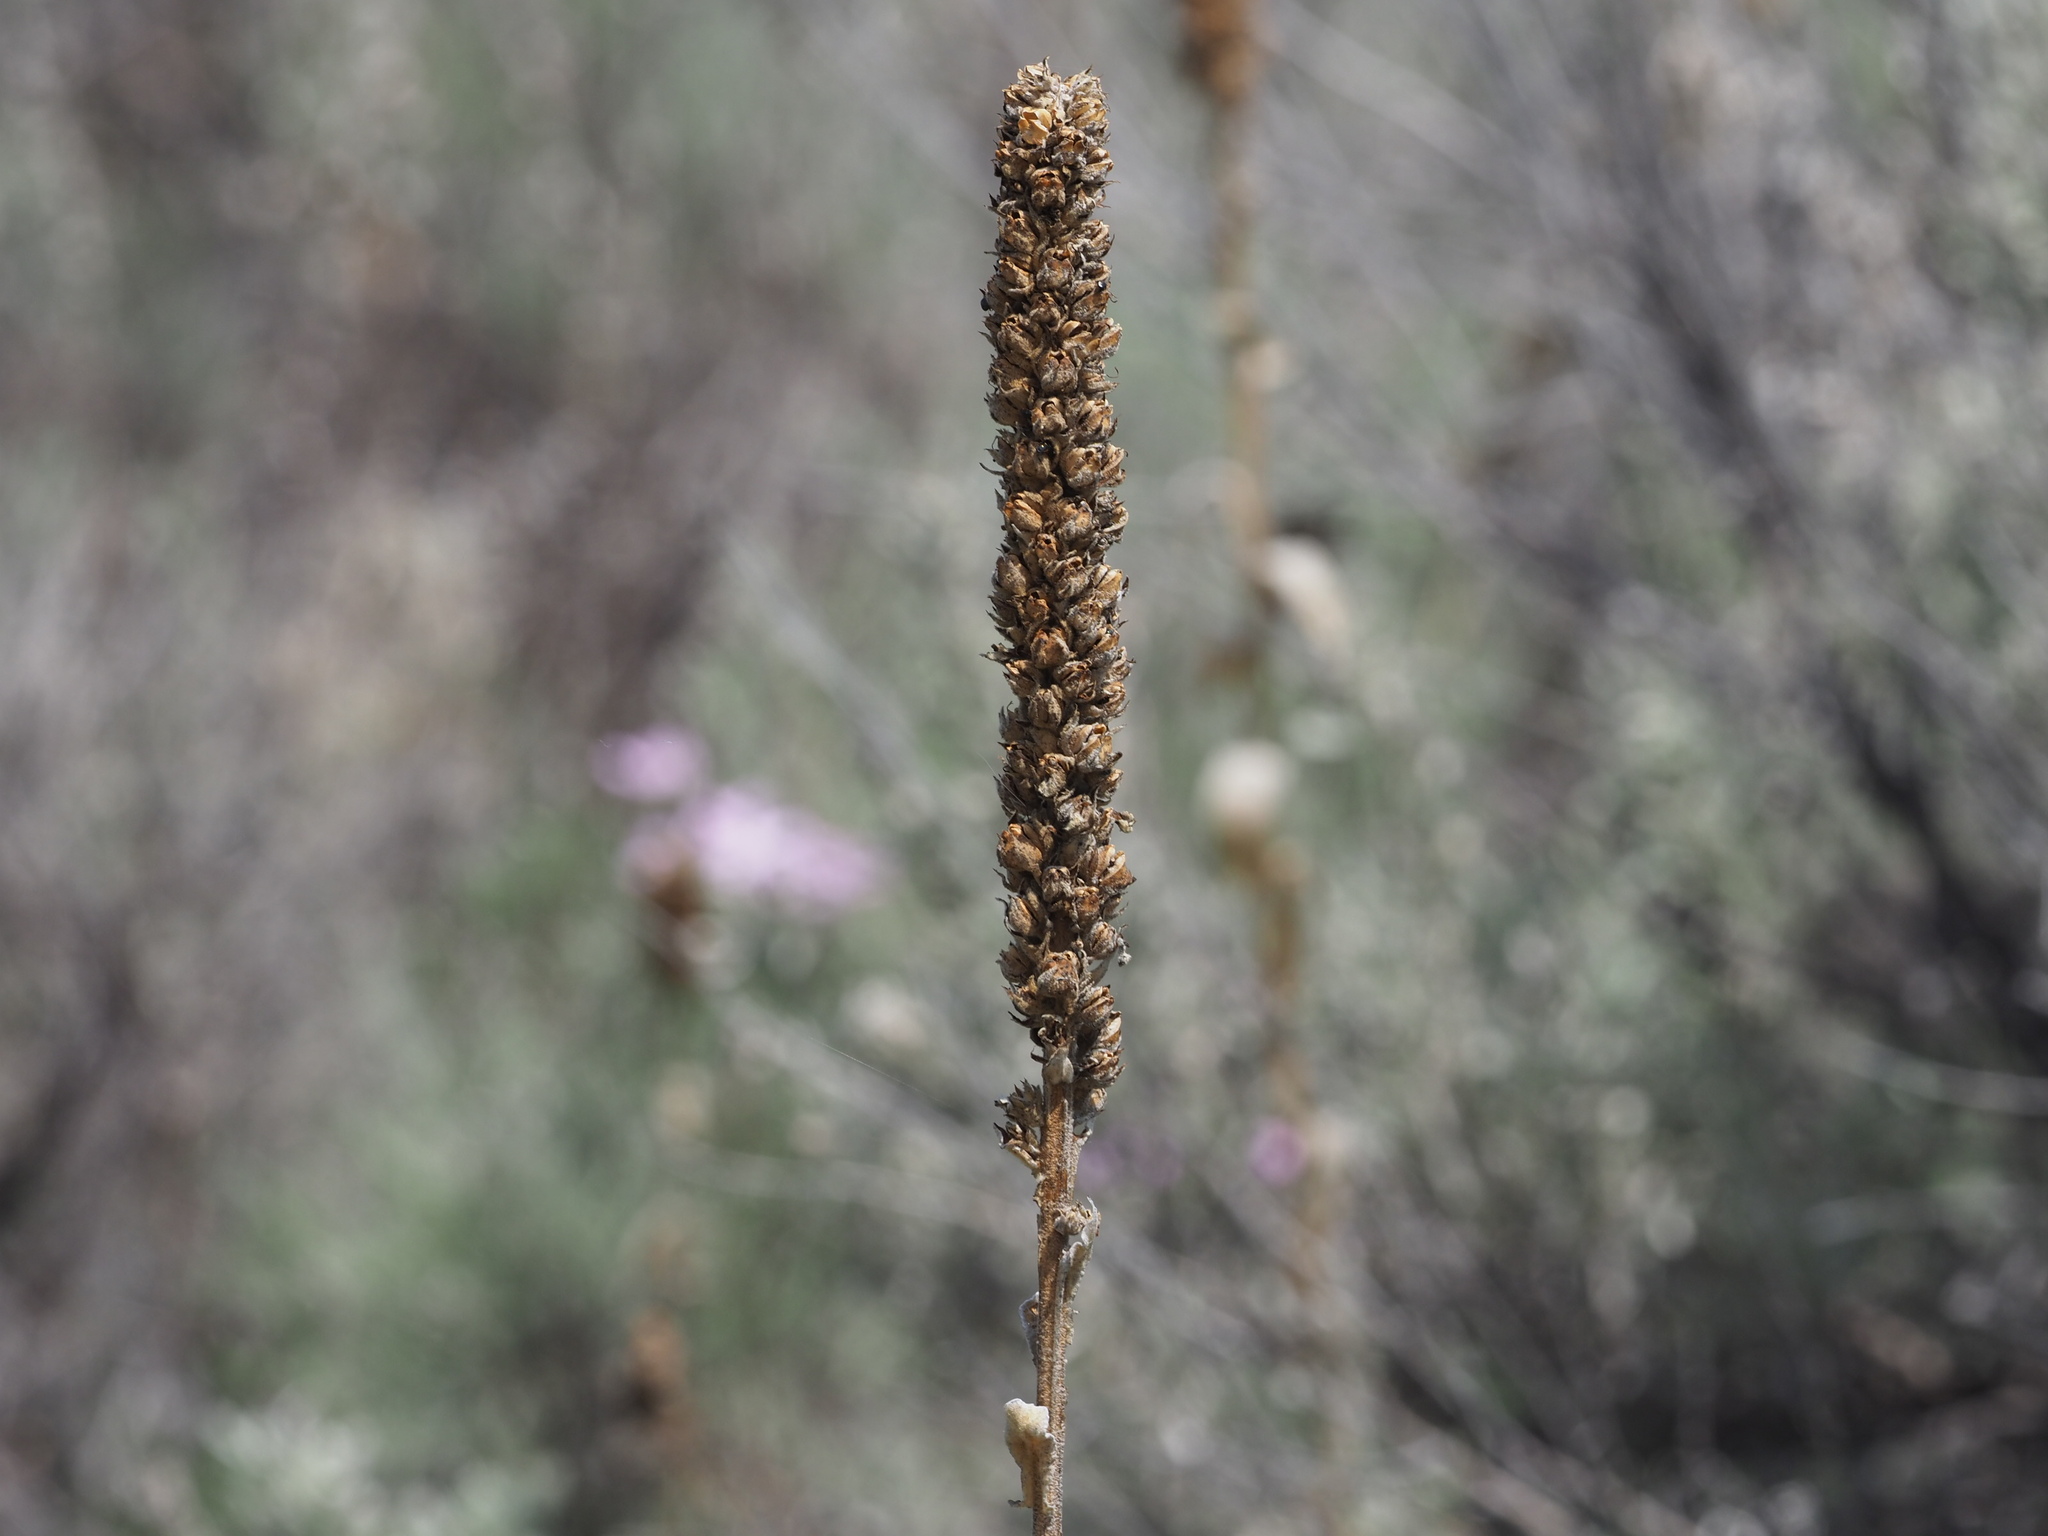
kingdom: Plantae
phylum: Tracheophyta
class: Magnoliopsida
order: Lamiales
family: Scrophulariaceae
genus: Verbascum
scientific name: Verbascum thapsus
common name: Common mullein
